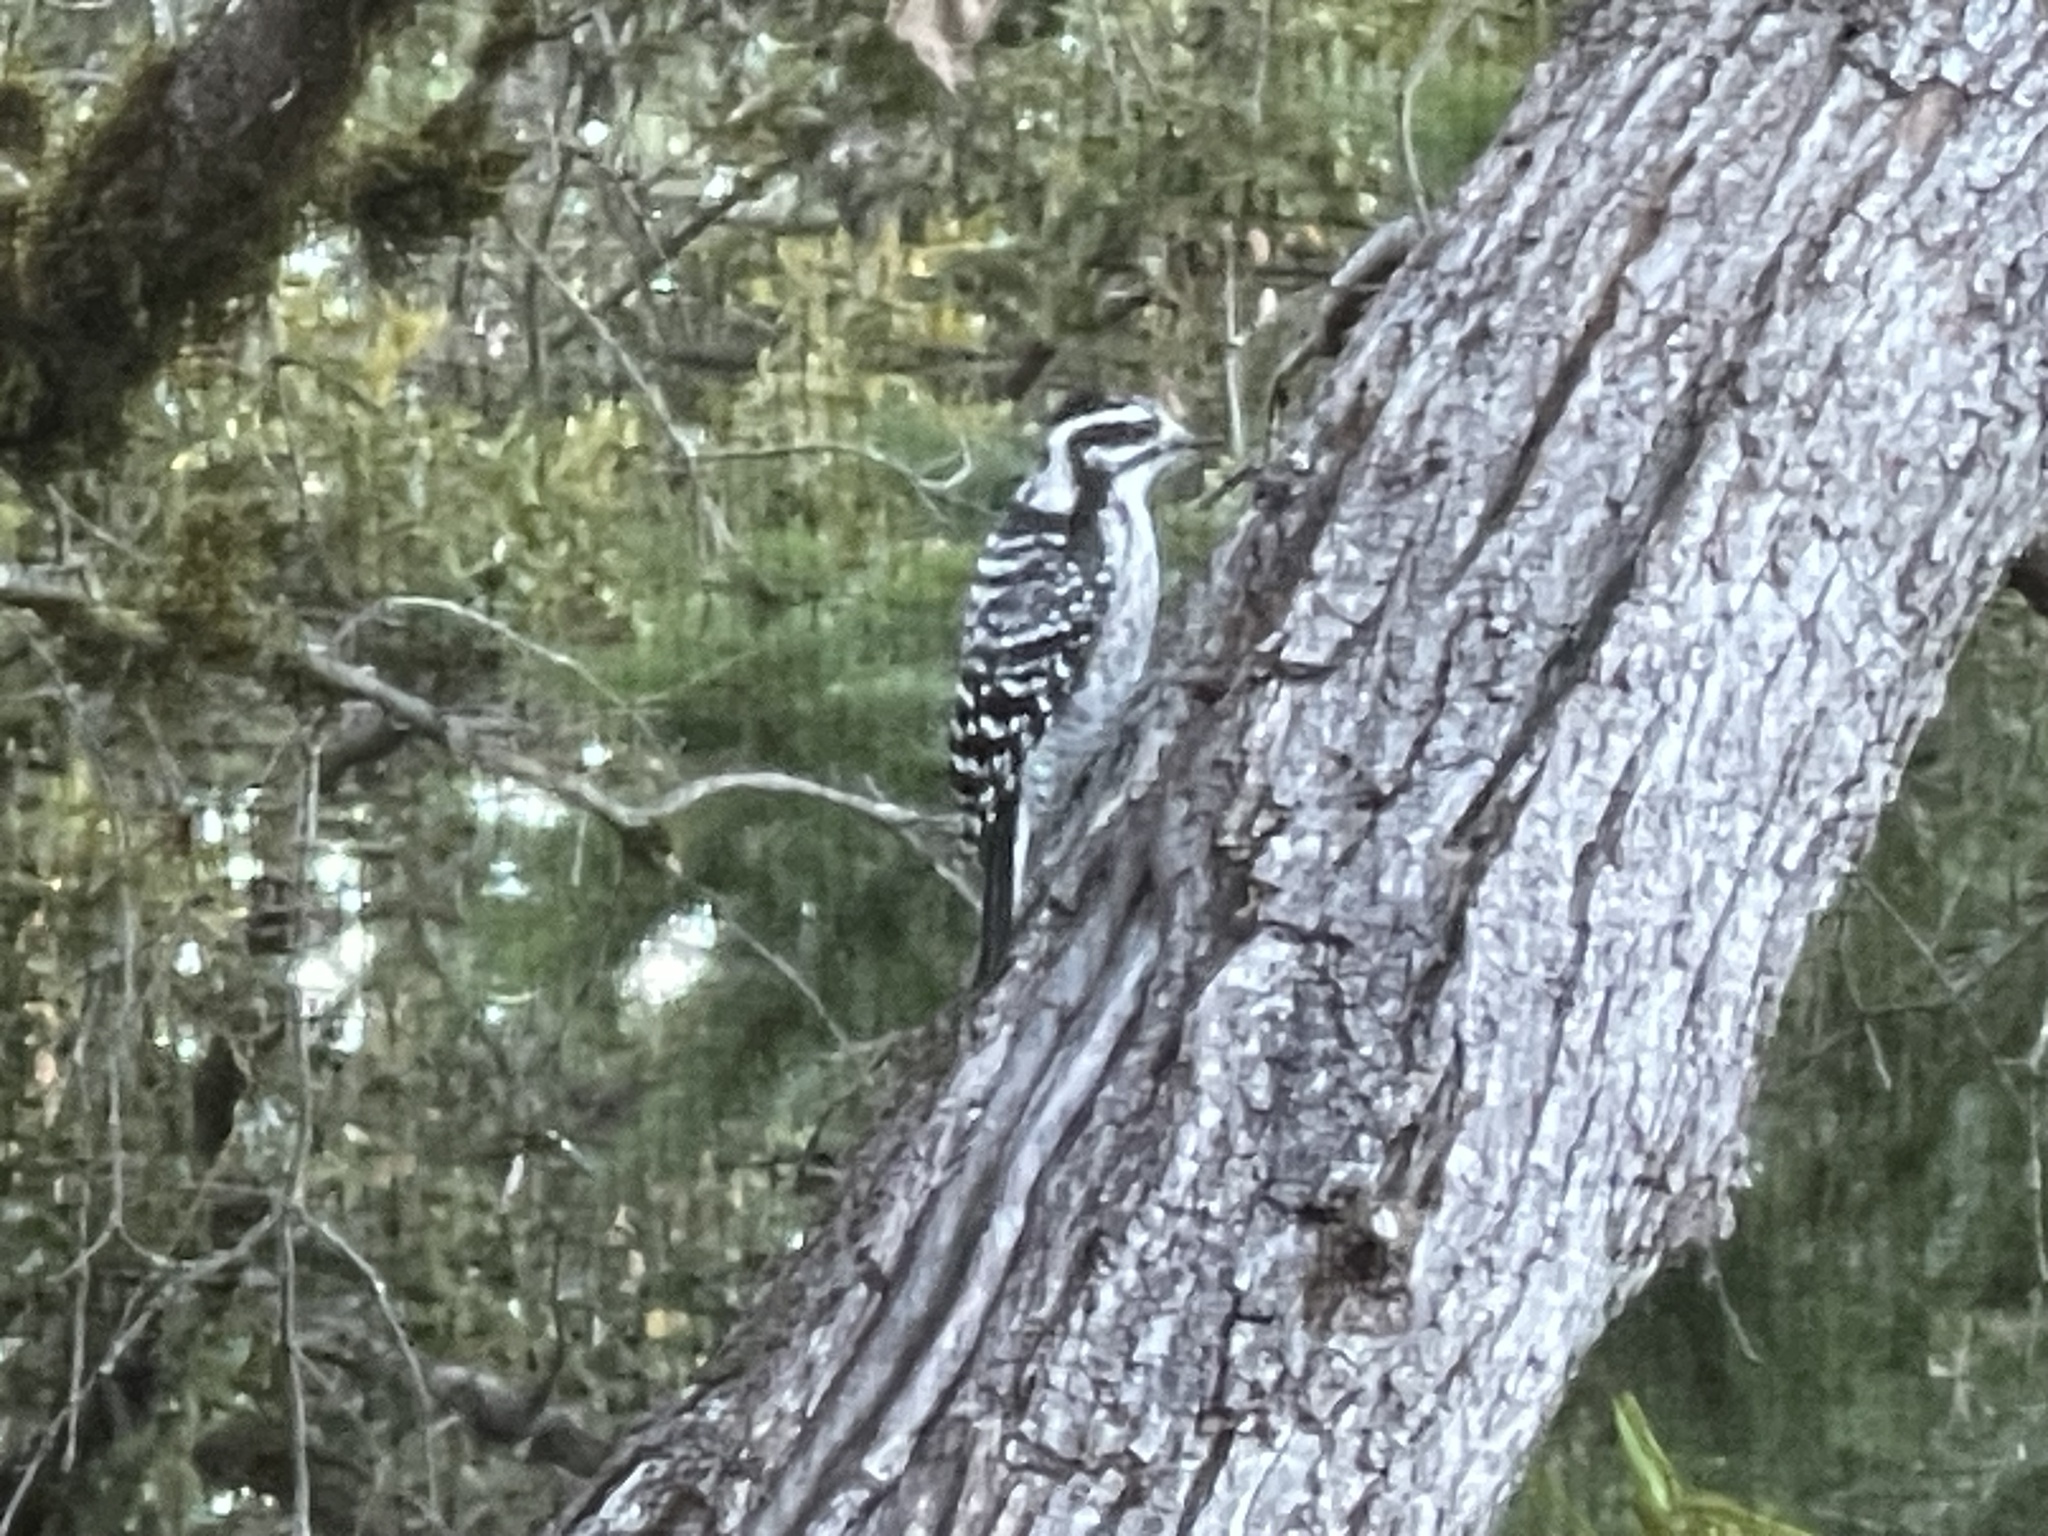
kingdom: Animalia
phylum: Chordata
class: Aves
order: Piciformes
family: Picidae
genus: Dryobates
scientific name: Dryobates nuttallii
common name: Nuttall's woodpecker
